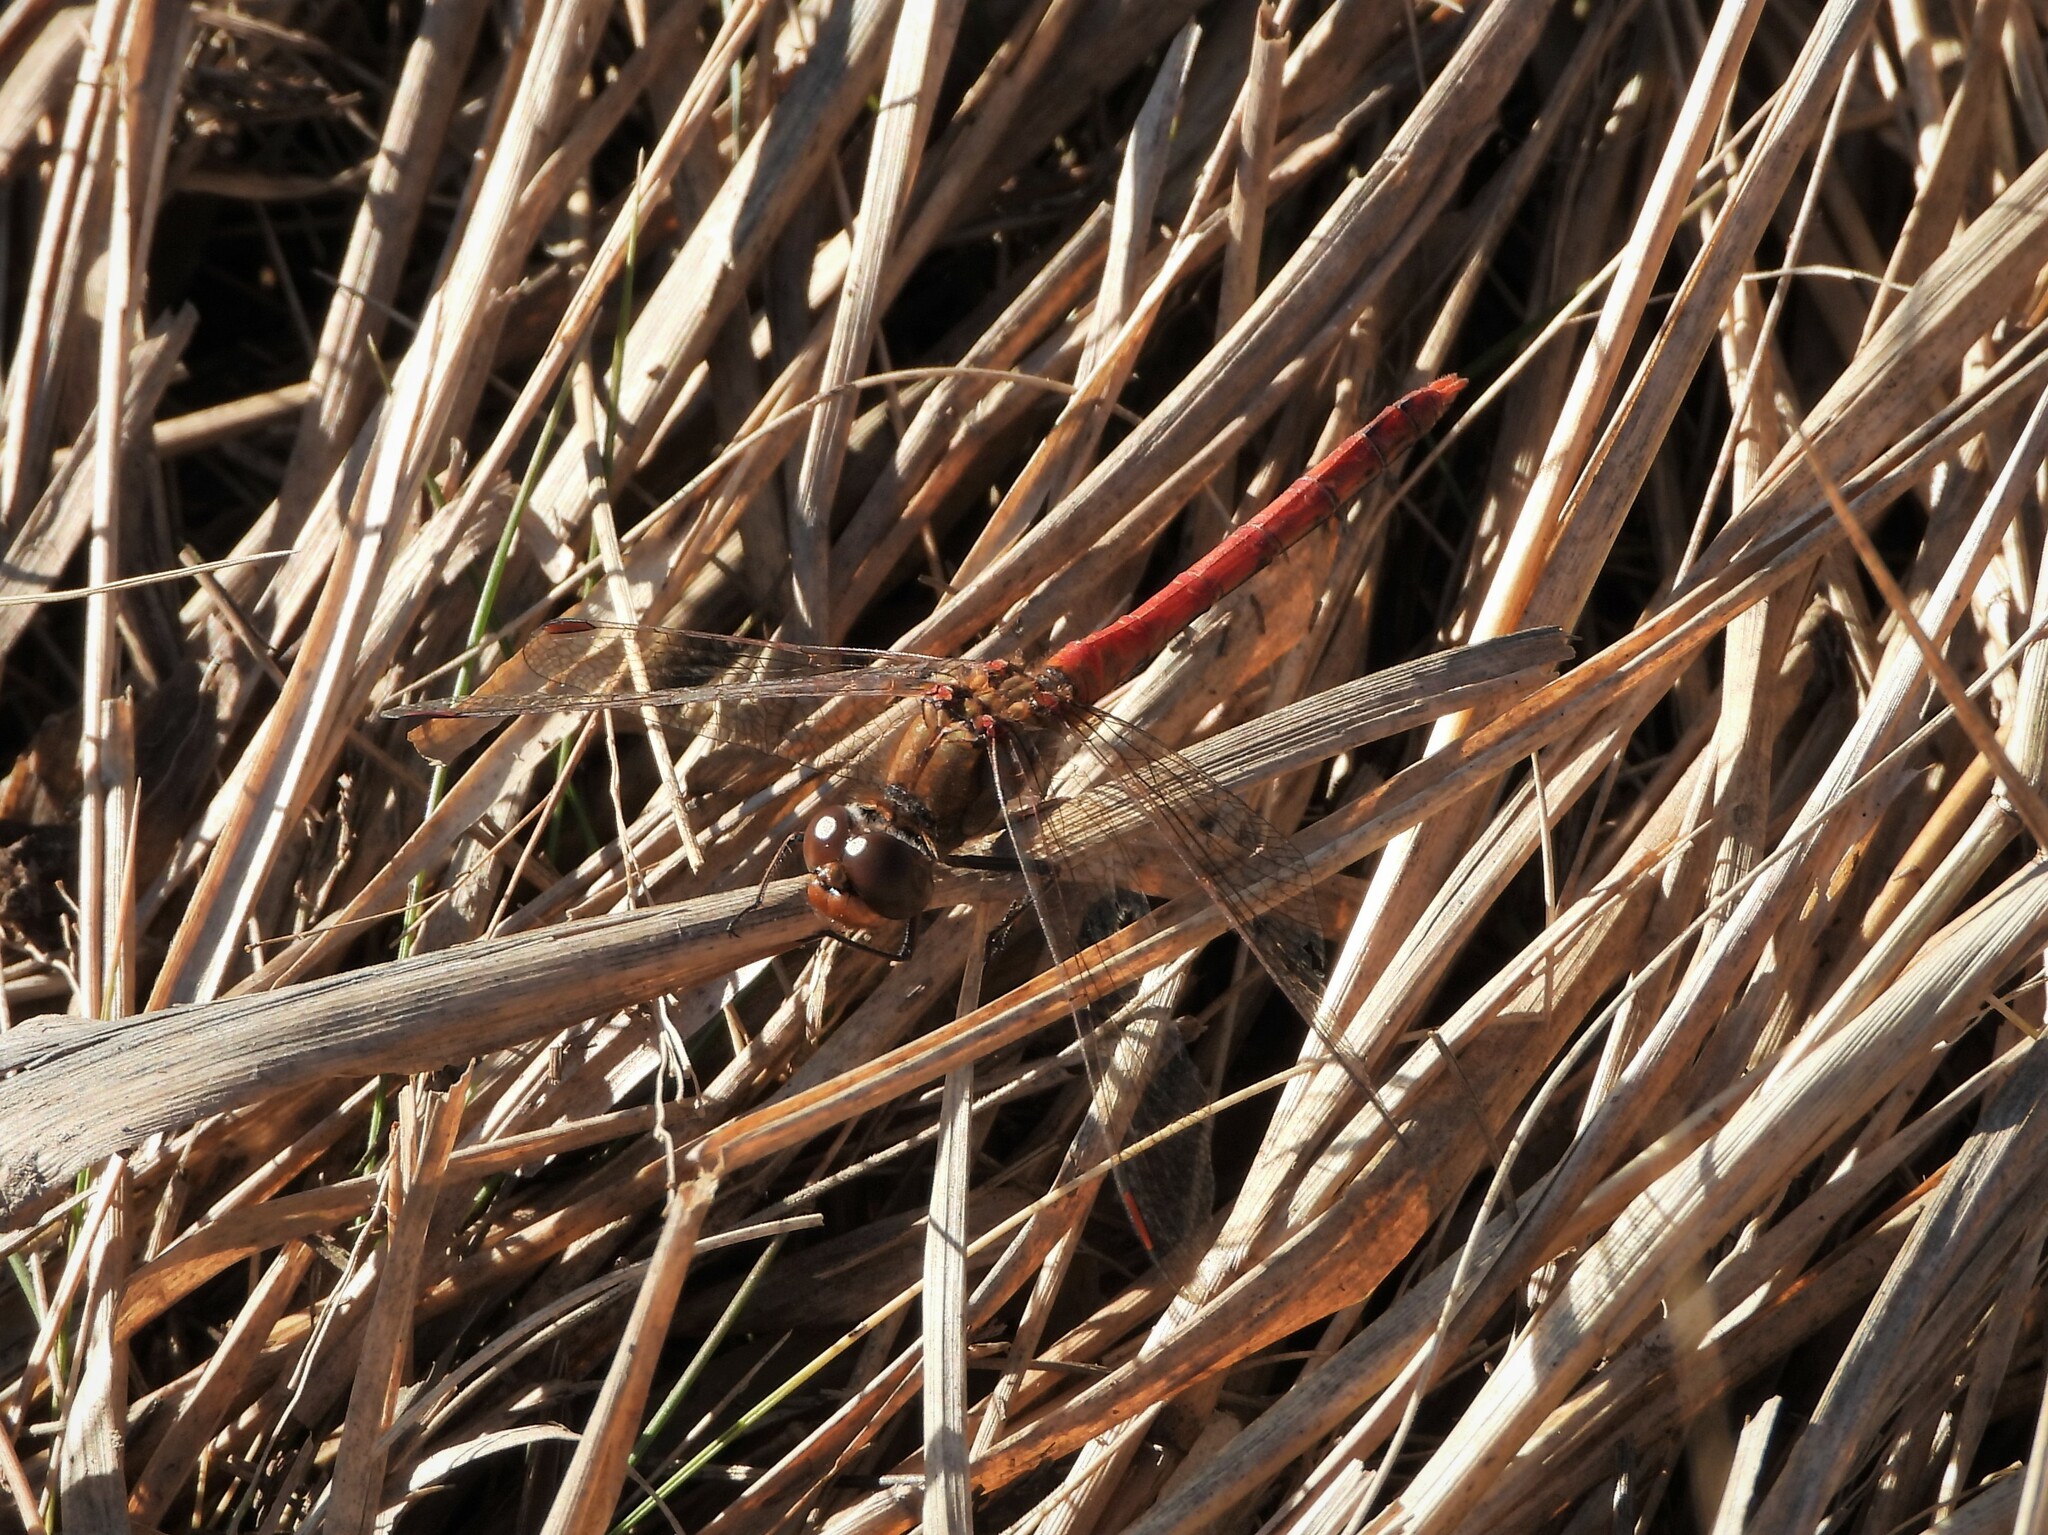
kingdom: Animalia
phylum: Arthropoda
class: Insecta
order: Odonata
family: Libellulidae
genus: Sympetrum
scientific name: Sympetrum striolatum
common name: Common darter
